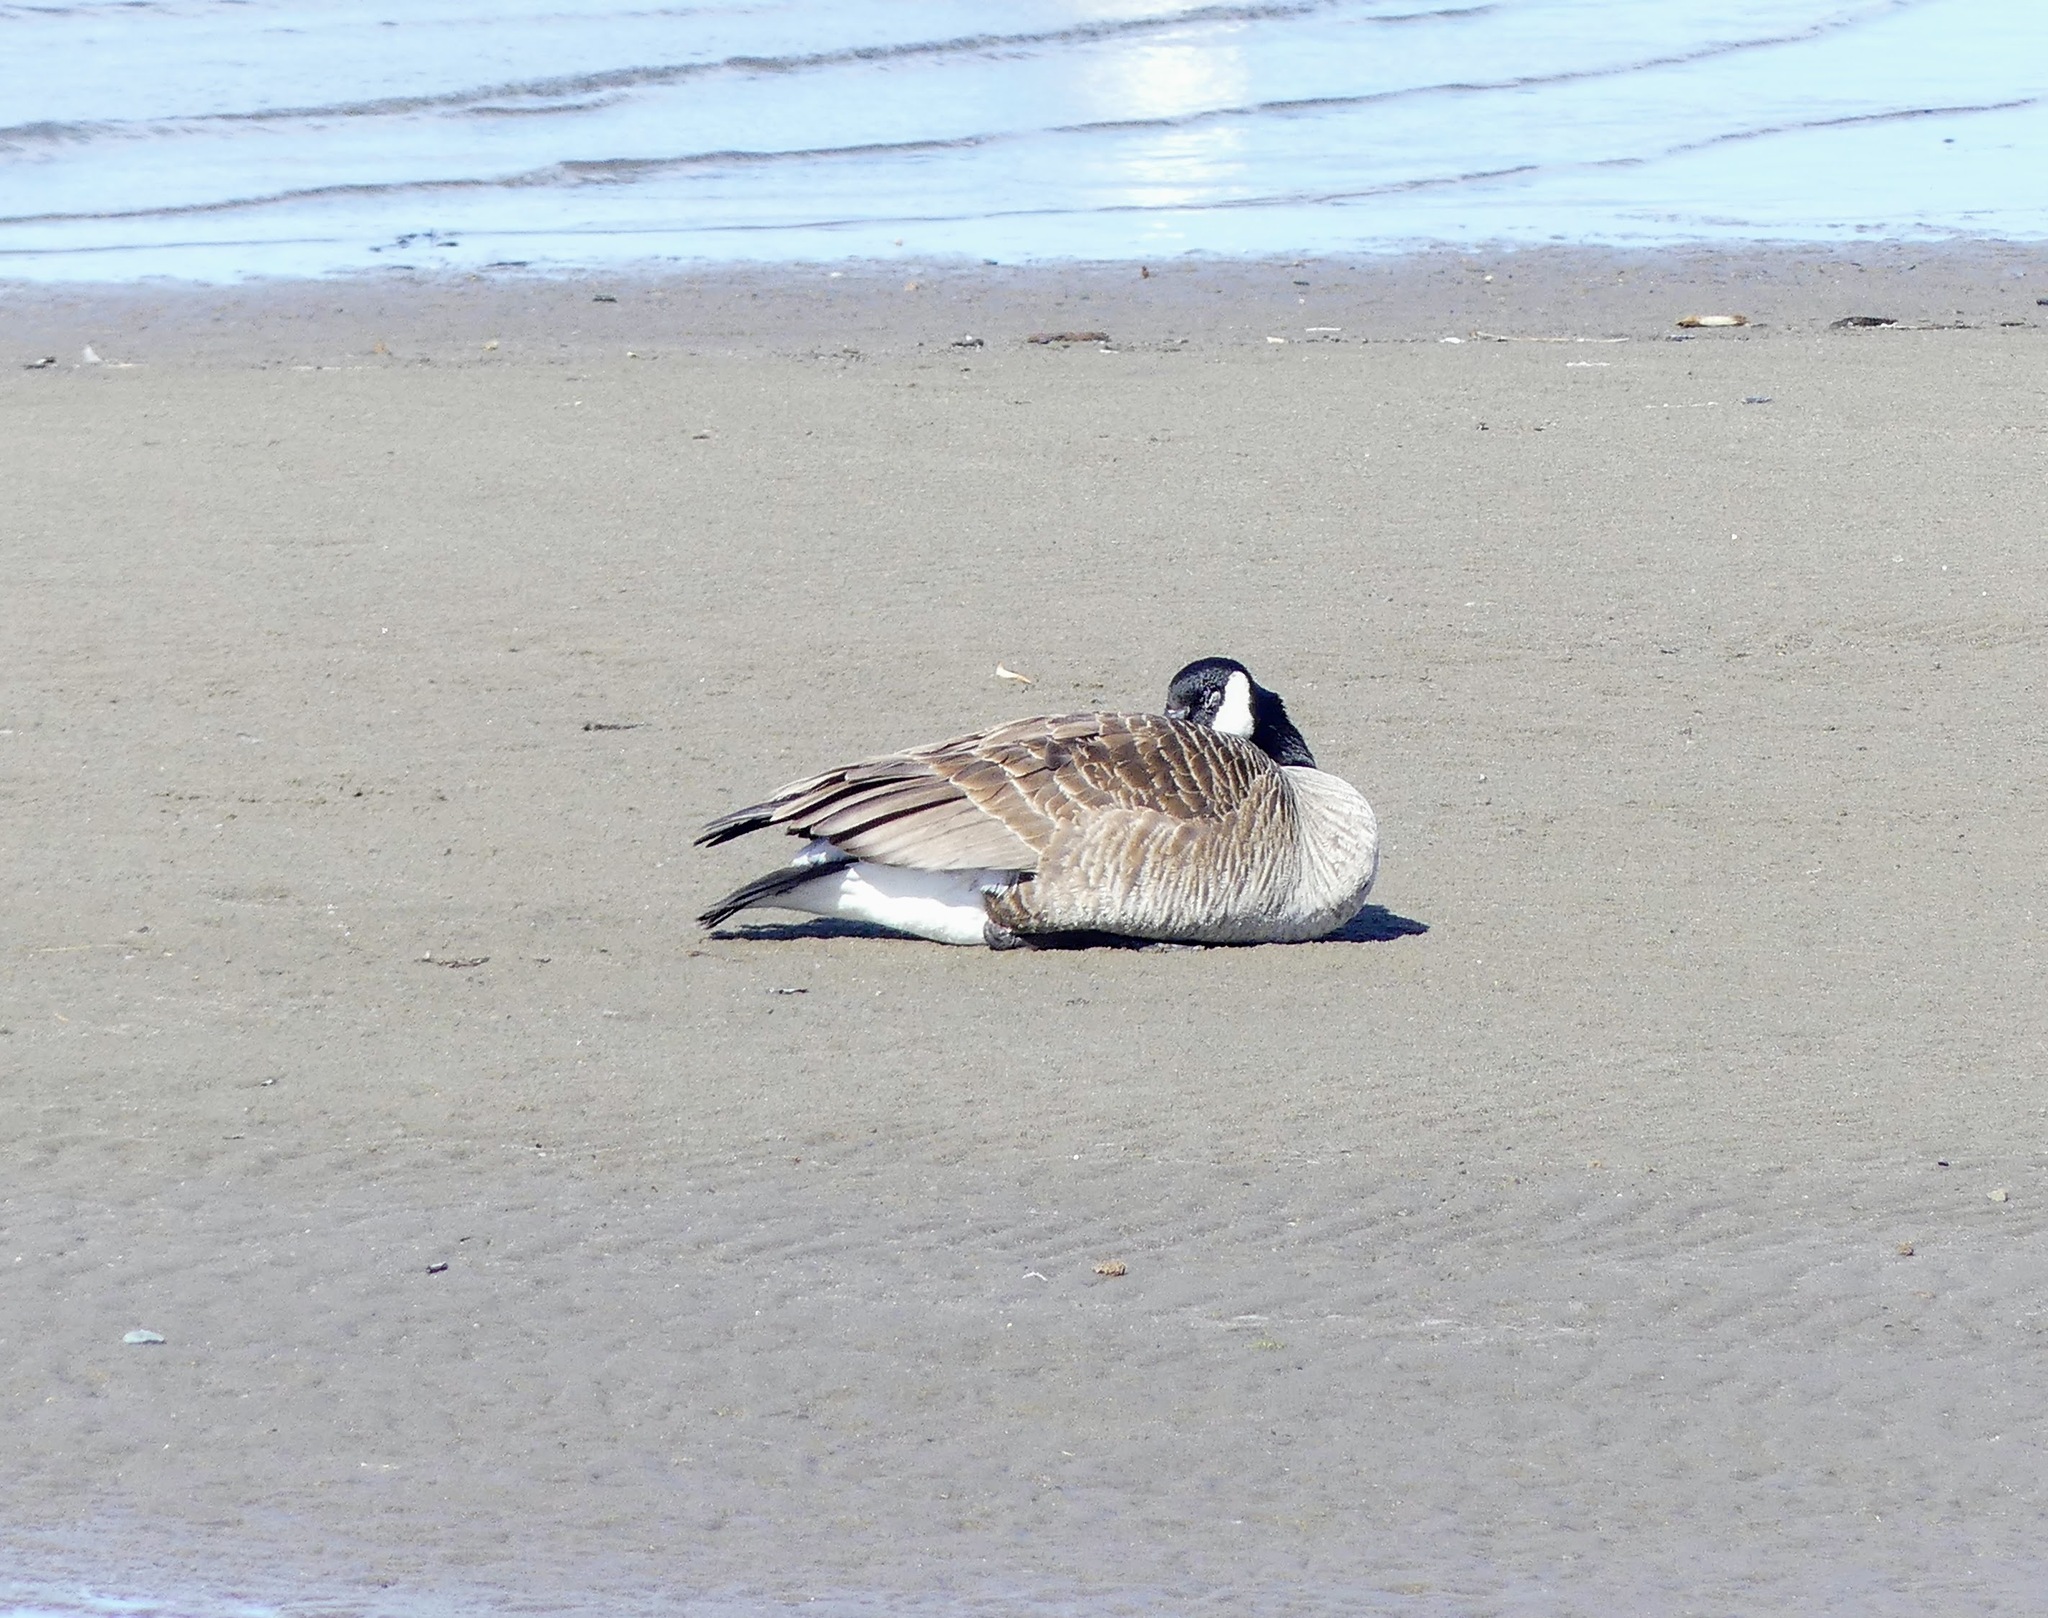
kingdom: Animalia
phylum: Chordata
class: Aves
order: Anseriformes
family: Anatidae
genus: Branta
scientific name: Branta canadensis
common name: Canada goose
